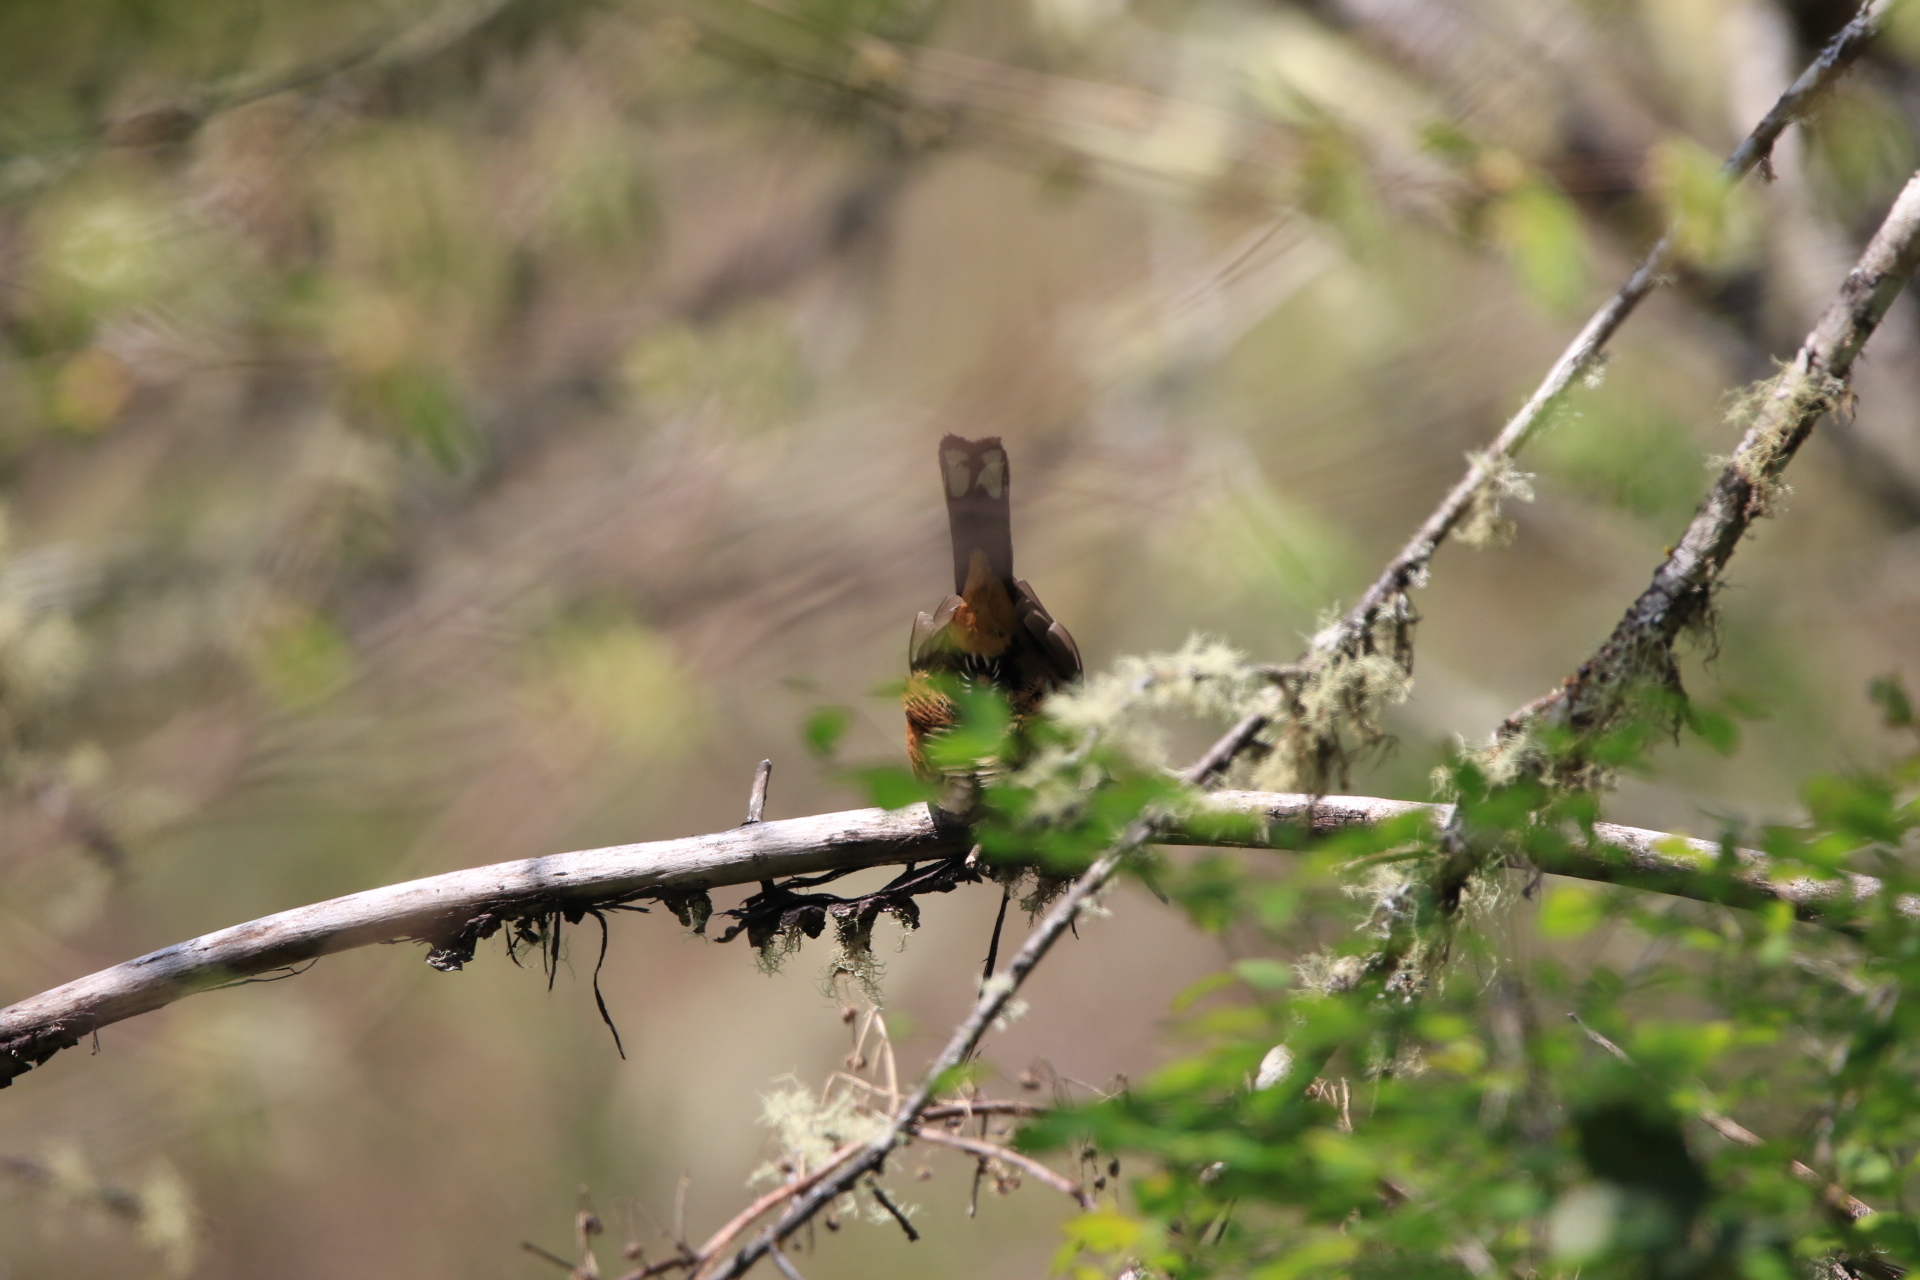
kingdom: Animalia
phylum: Chordata
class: Aves
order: Passeriformes
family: Passerellidae
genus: Pipilo
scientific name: Pipilo maculatus
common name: Spotted towhee
